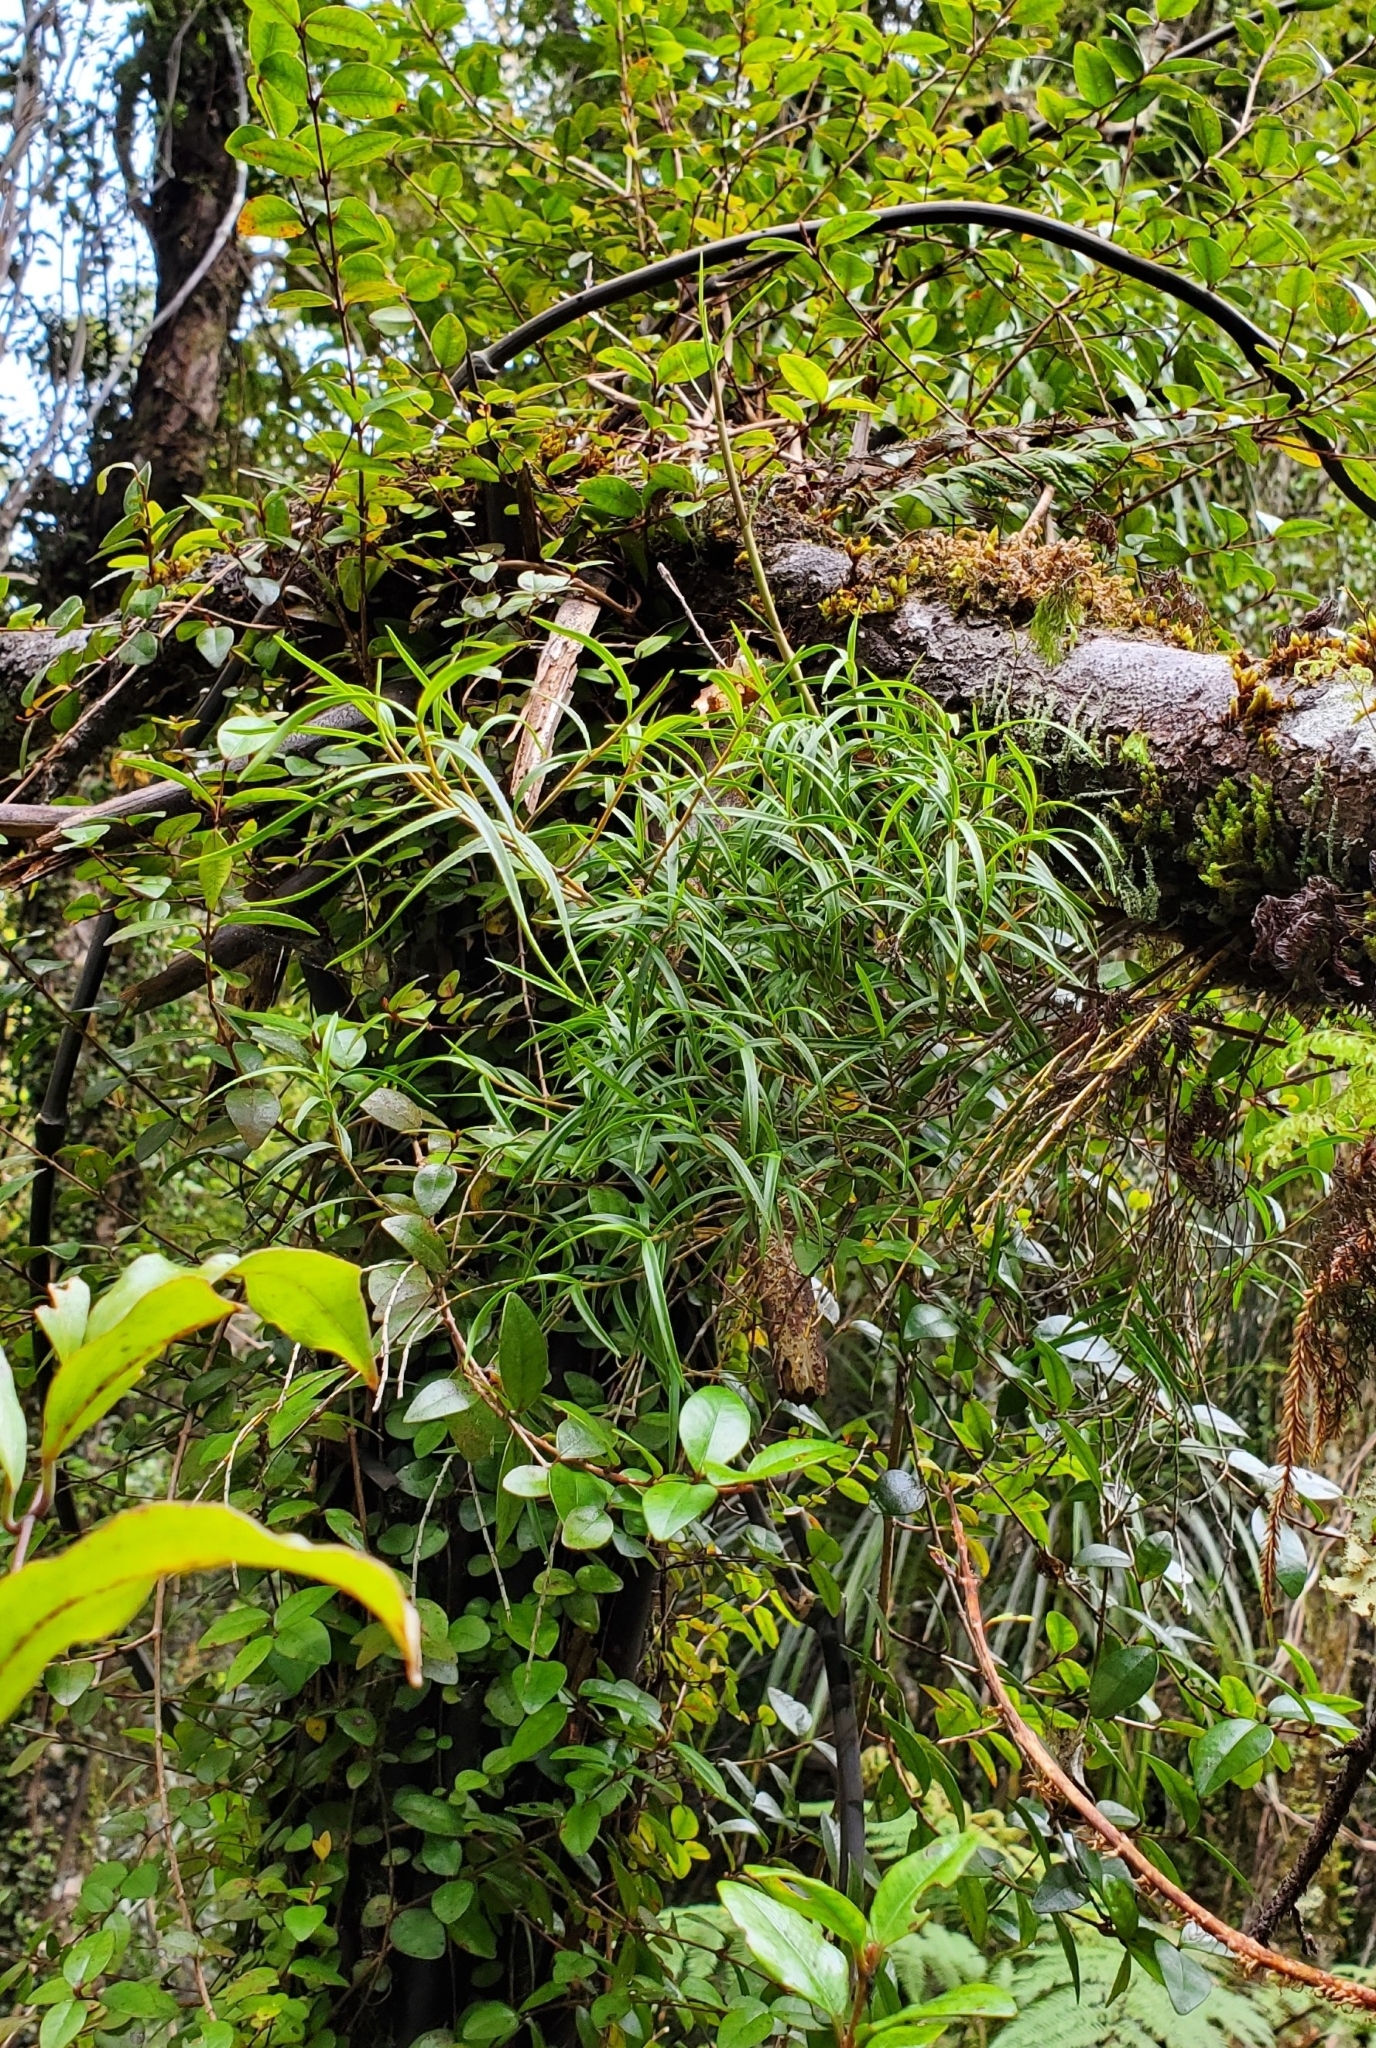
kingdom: Plantae
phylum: Tracheophyta
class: Liliopsida
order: Asparagales
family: Orchidaceae
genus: Dendrobium
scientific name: Dendrobium cunninghamii
